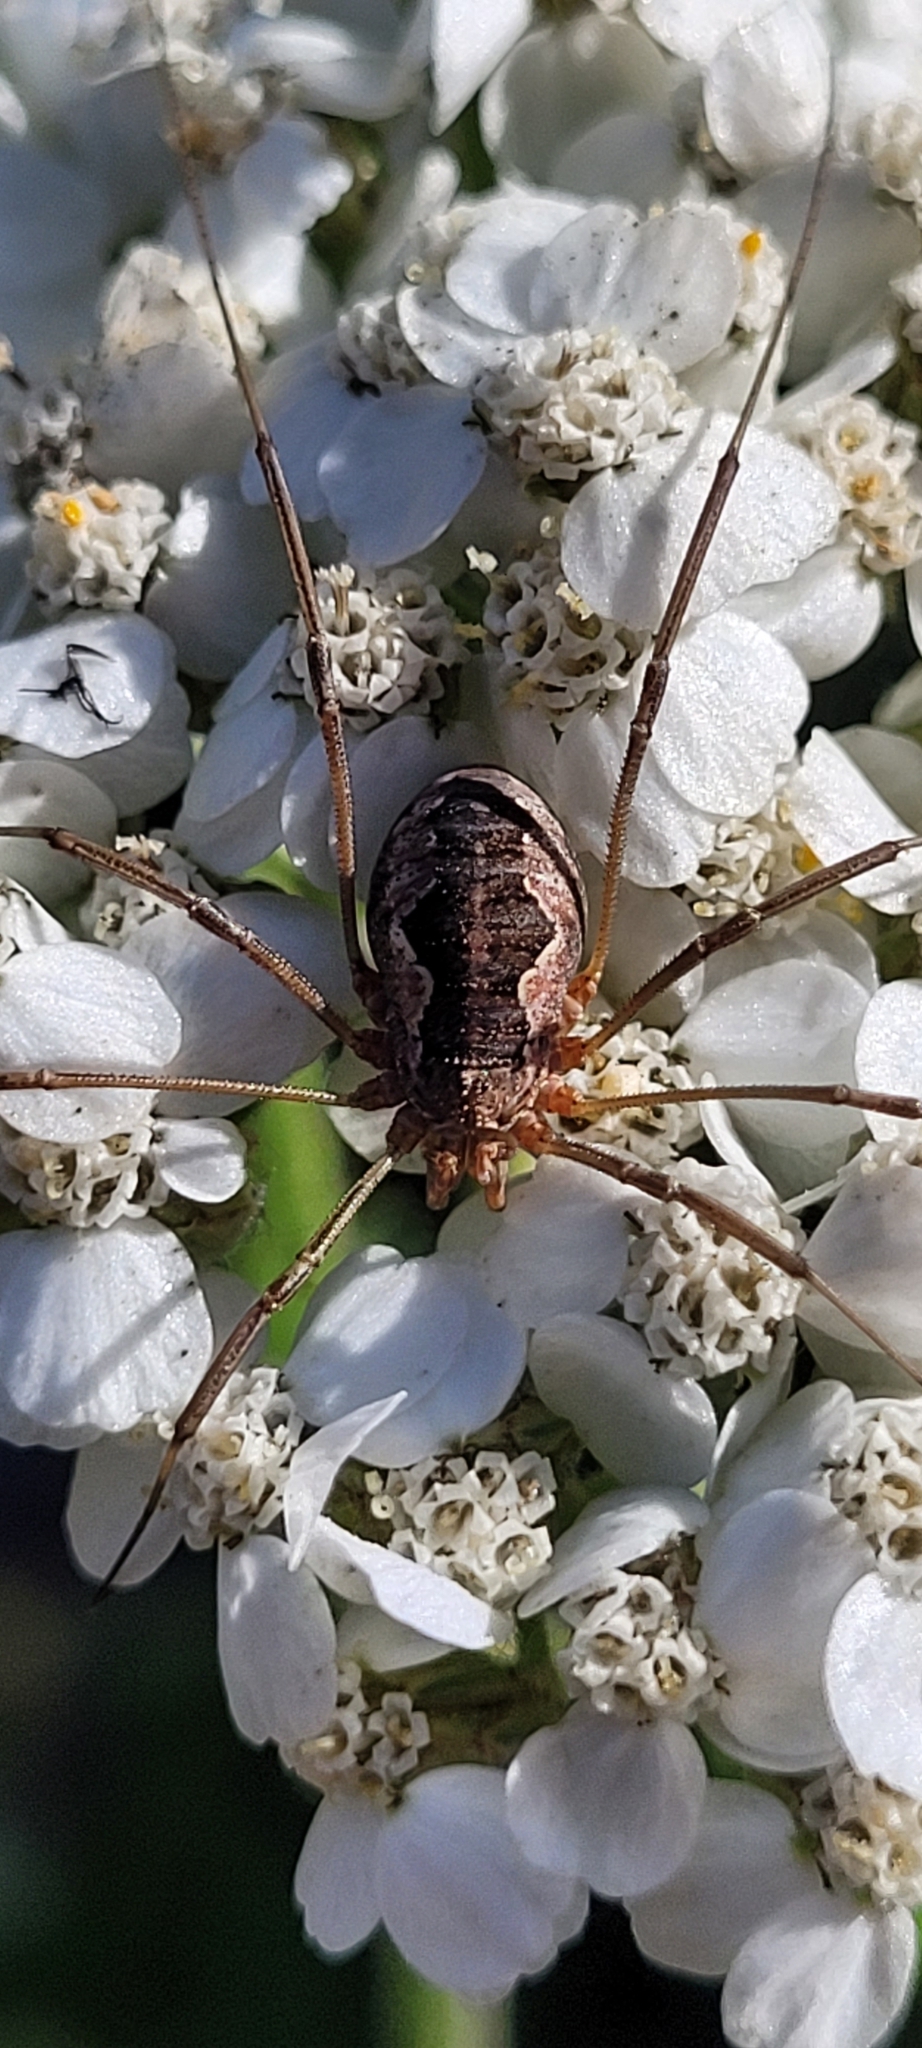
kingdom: Animalia
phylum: Arthropoda
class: Arachnida
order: Opiliones
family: Phalangiidae
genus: Phalangium
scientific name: Phalangium opilio
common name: Daddy longleg
